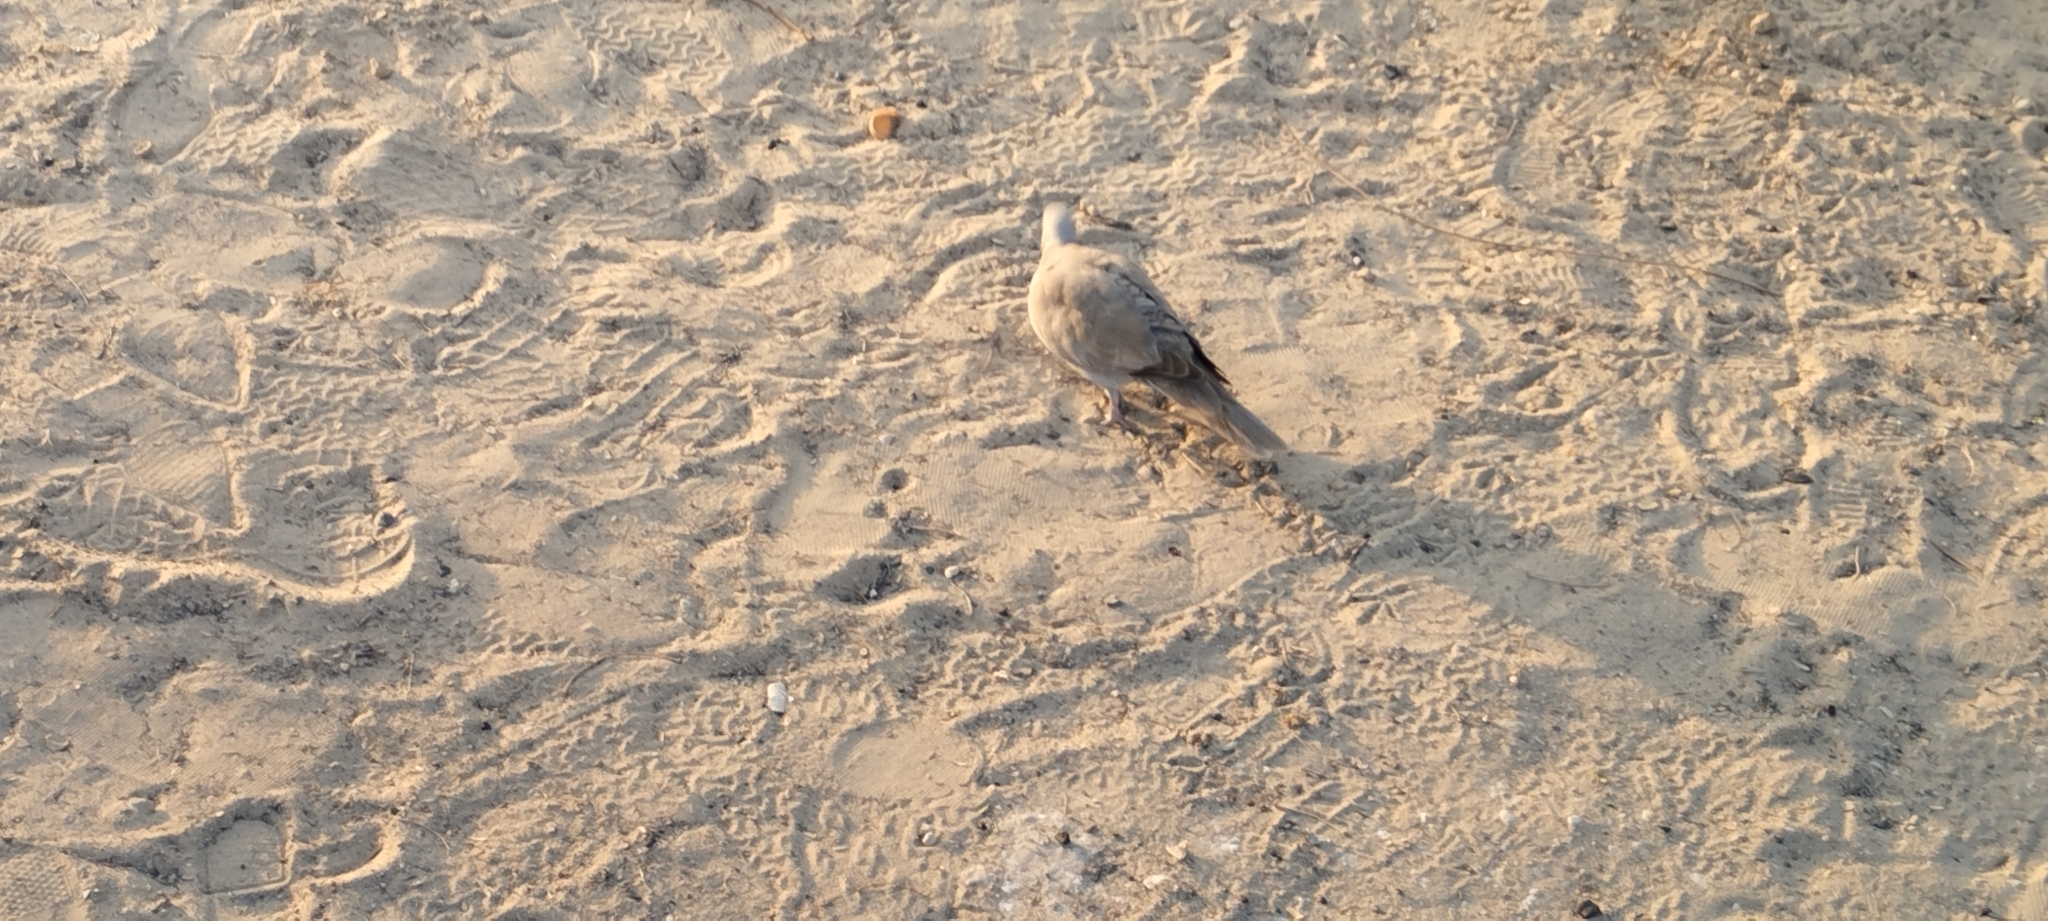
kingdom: Animalia
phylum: Chordata
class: Aves
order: Columbiformes
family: Columbidae
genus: Streptopelia
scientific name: Streptopelia decaocto
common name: Eurasian collared dove
